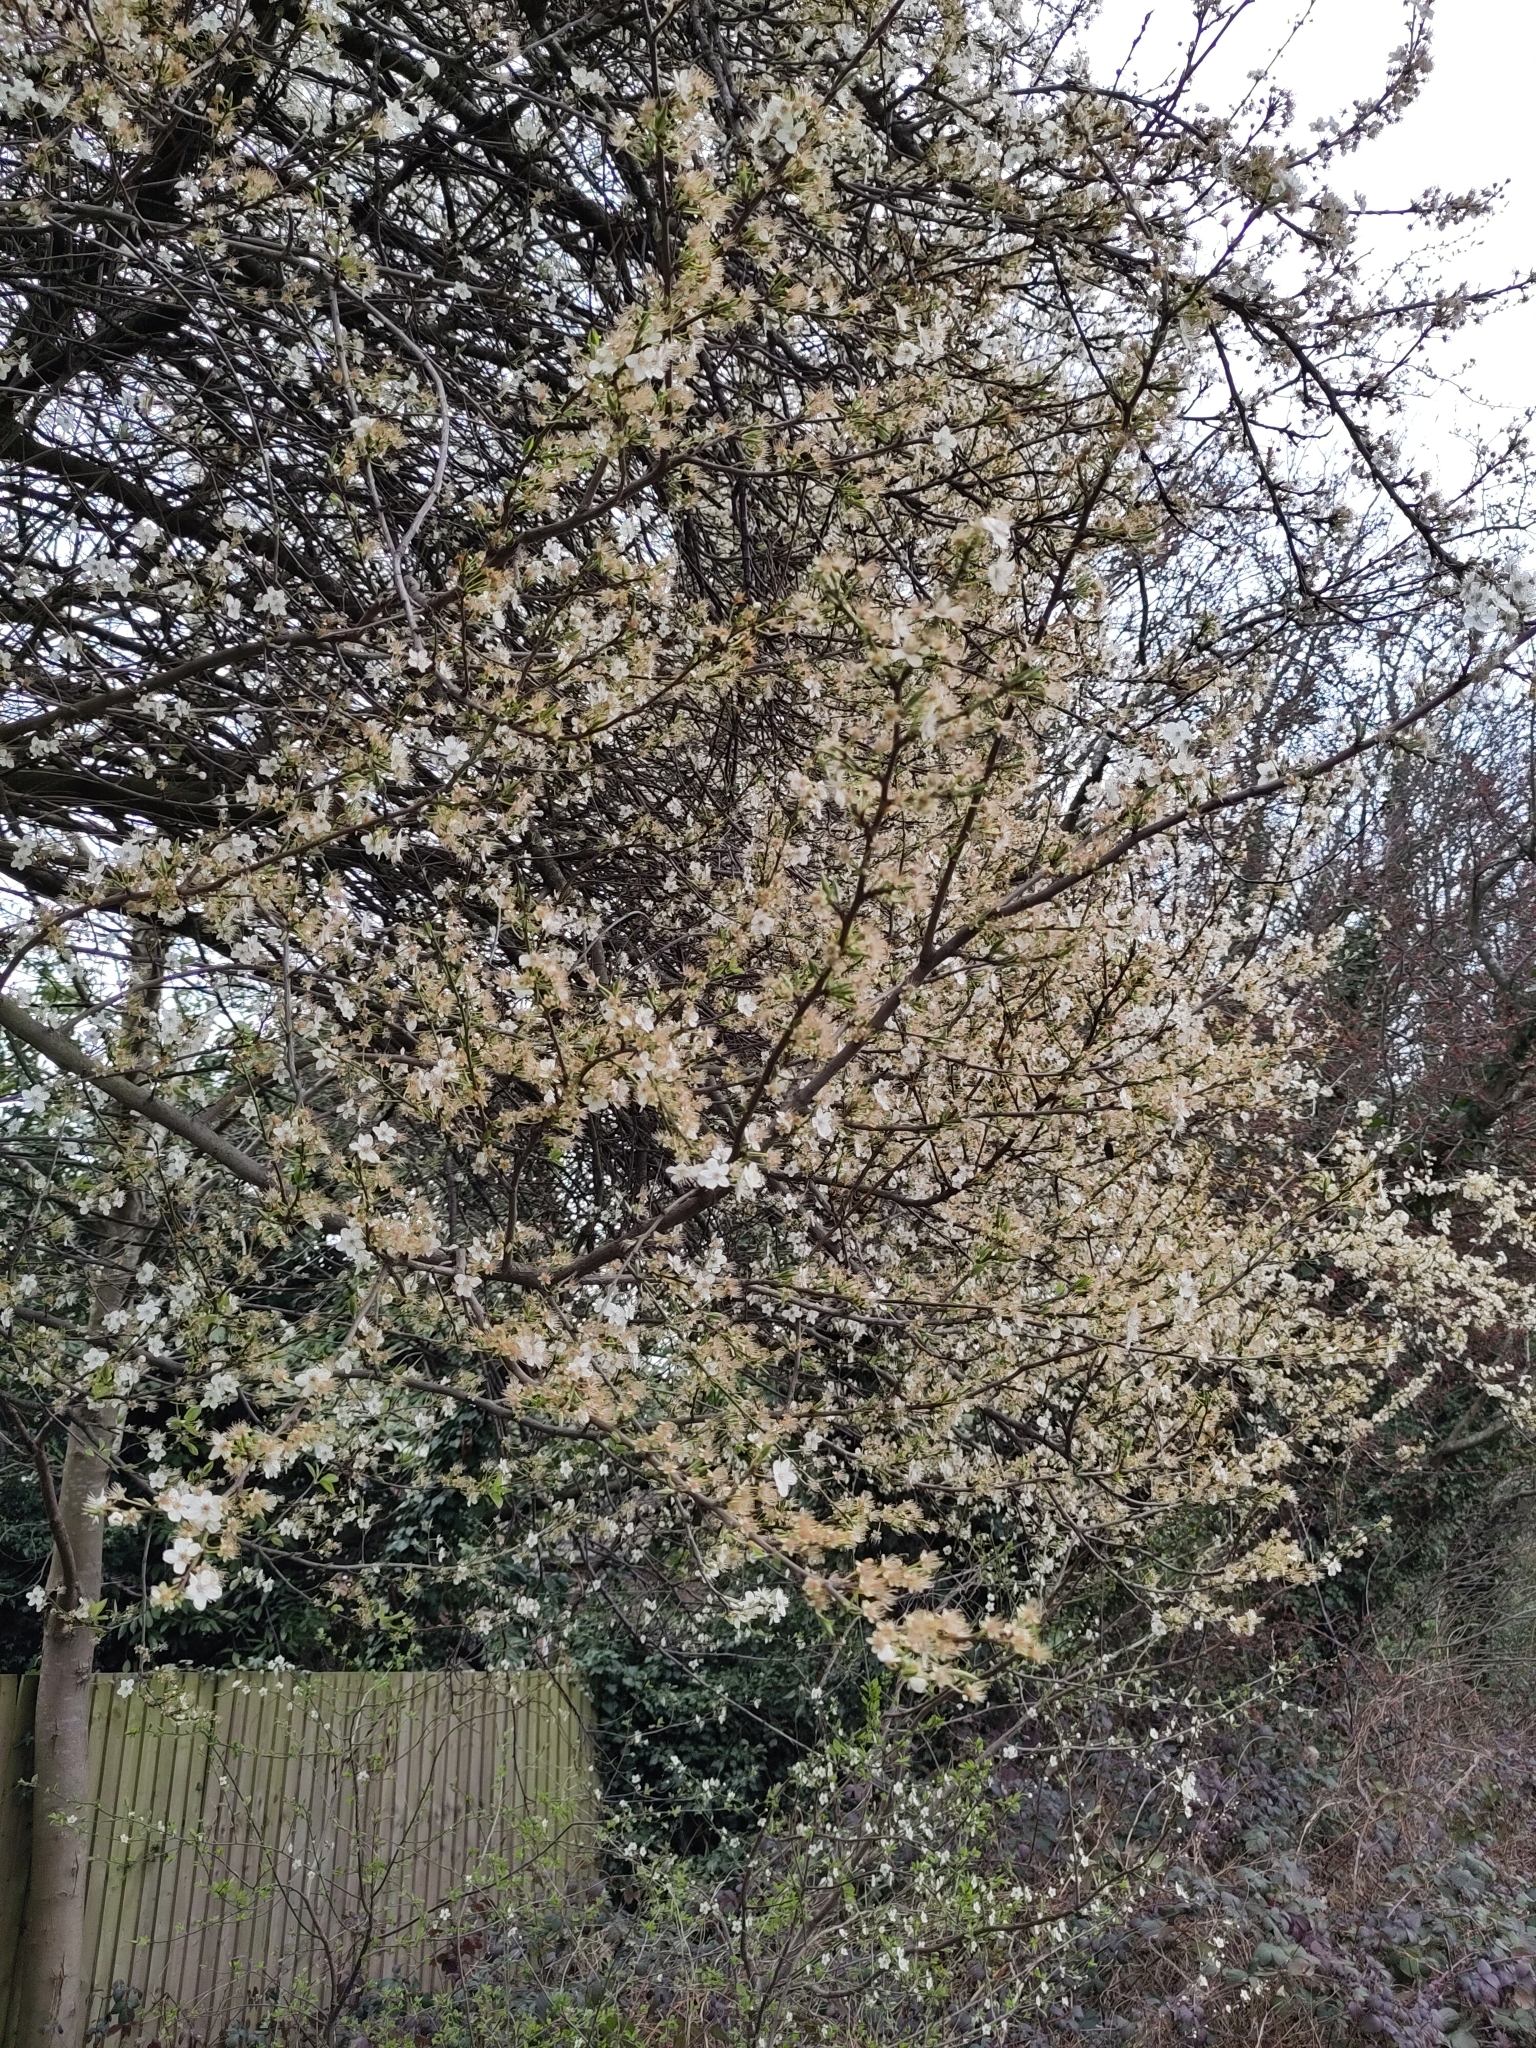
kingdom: Plantae
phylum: Tracheophyta
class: Magnoliopsida
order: Rosales
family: Rosaceae
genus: Prunus
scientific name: Prunus cerasifera
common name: Cherry plum
